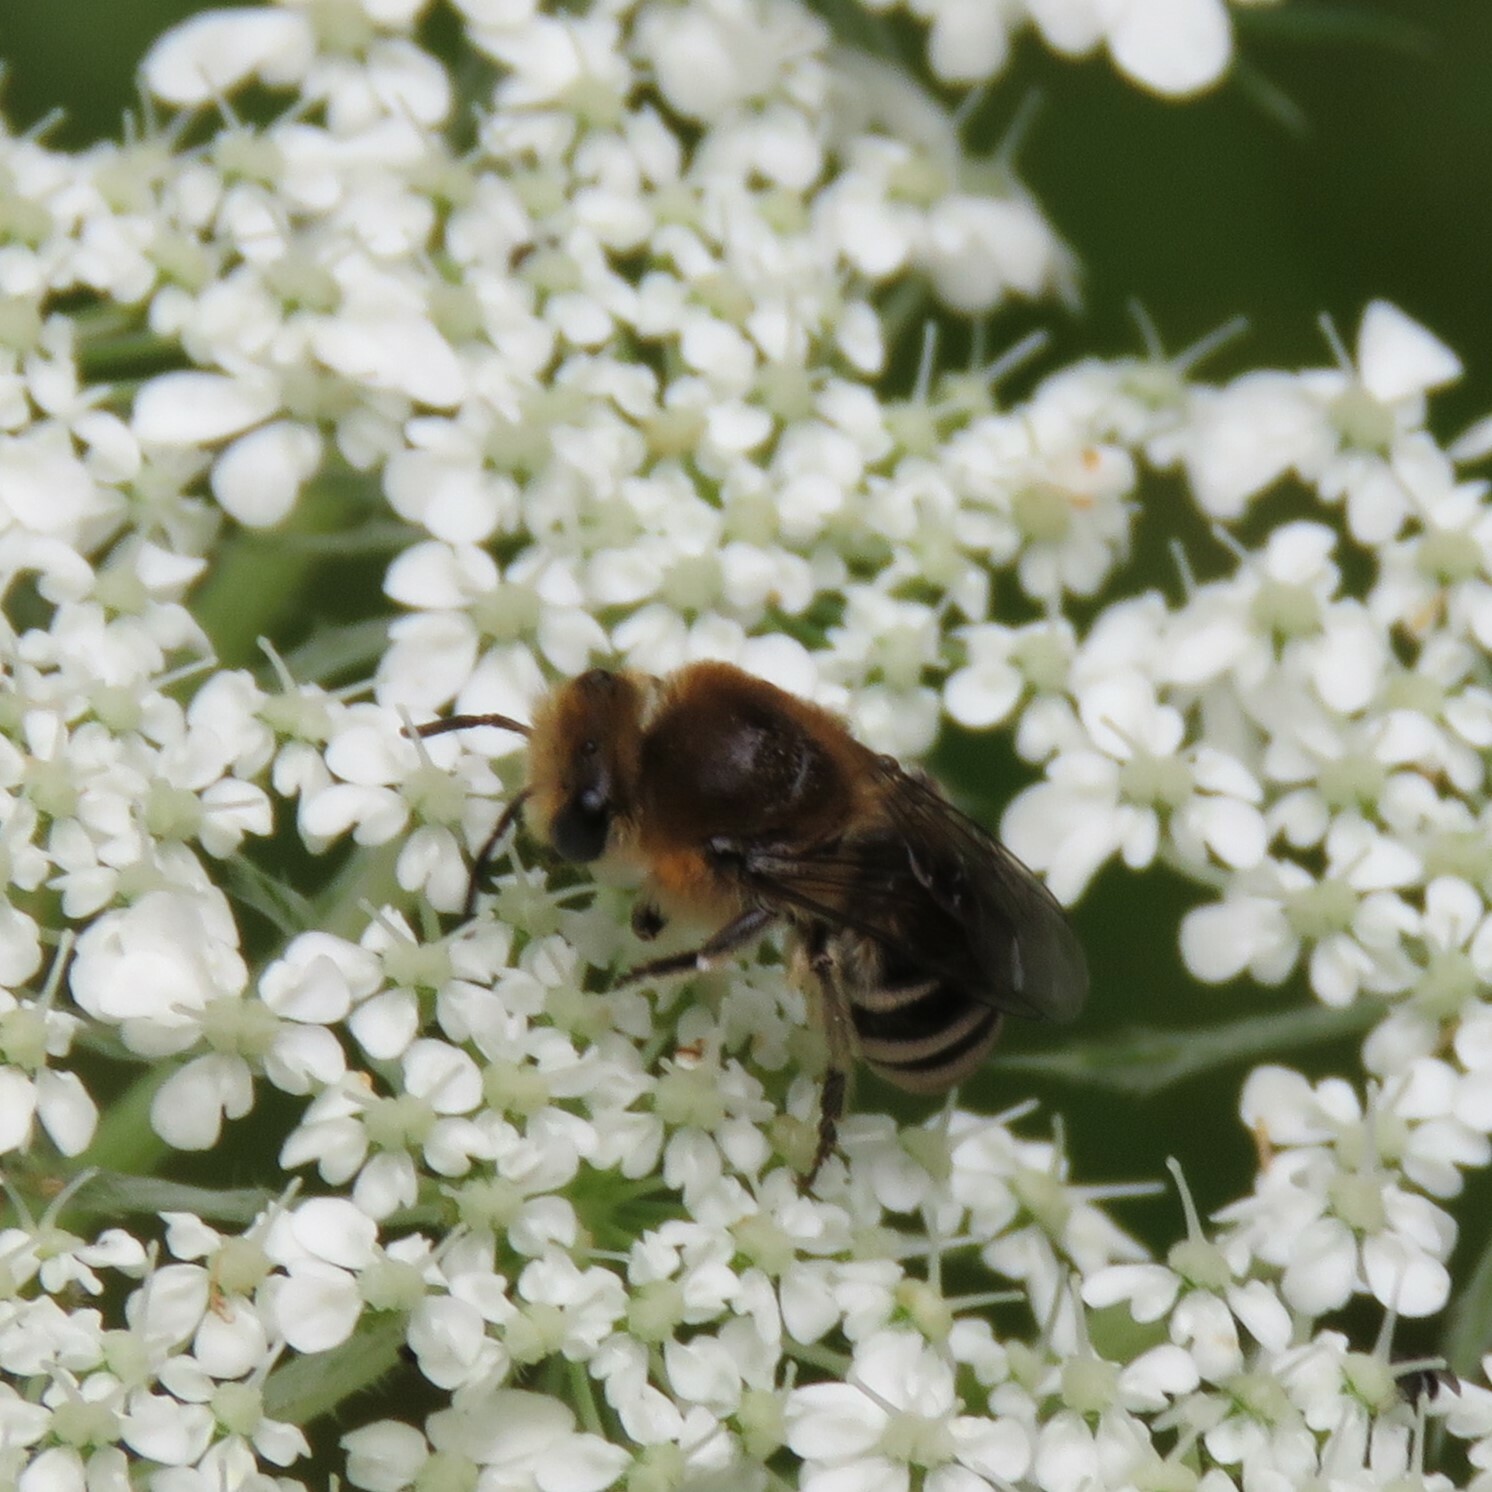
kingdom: Animalia
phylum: Arthropoda
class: Insecta
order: Hymenoptera
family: Colletidae
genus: Colletes
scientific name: Colletes succinctus
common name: Girdled colletes
